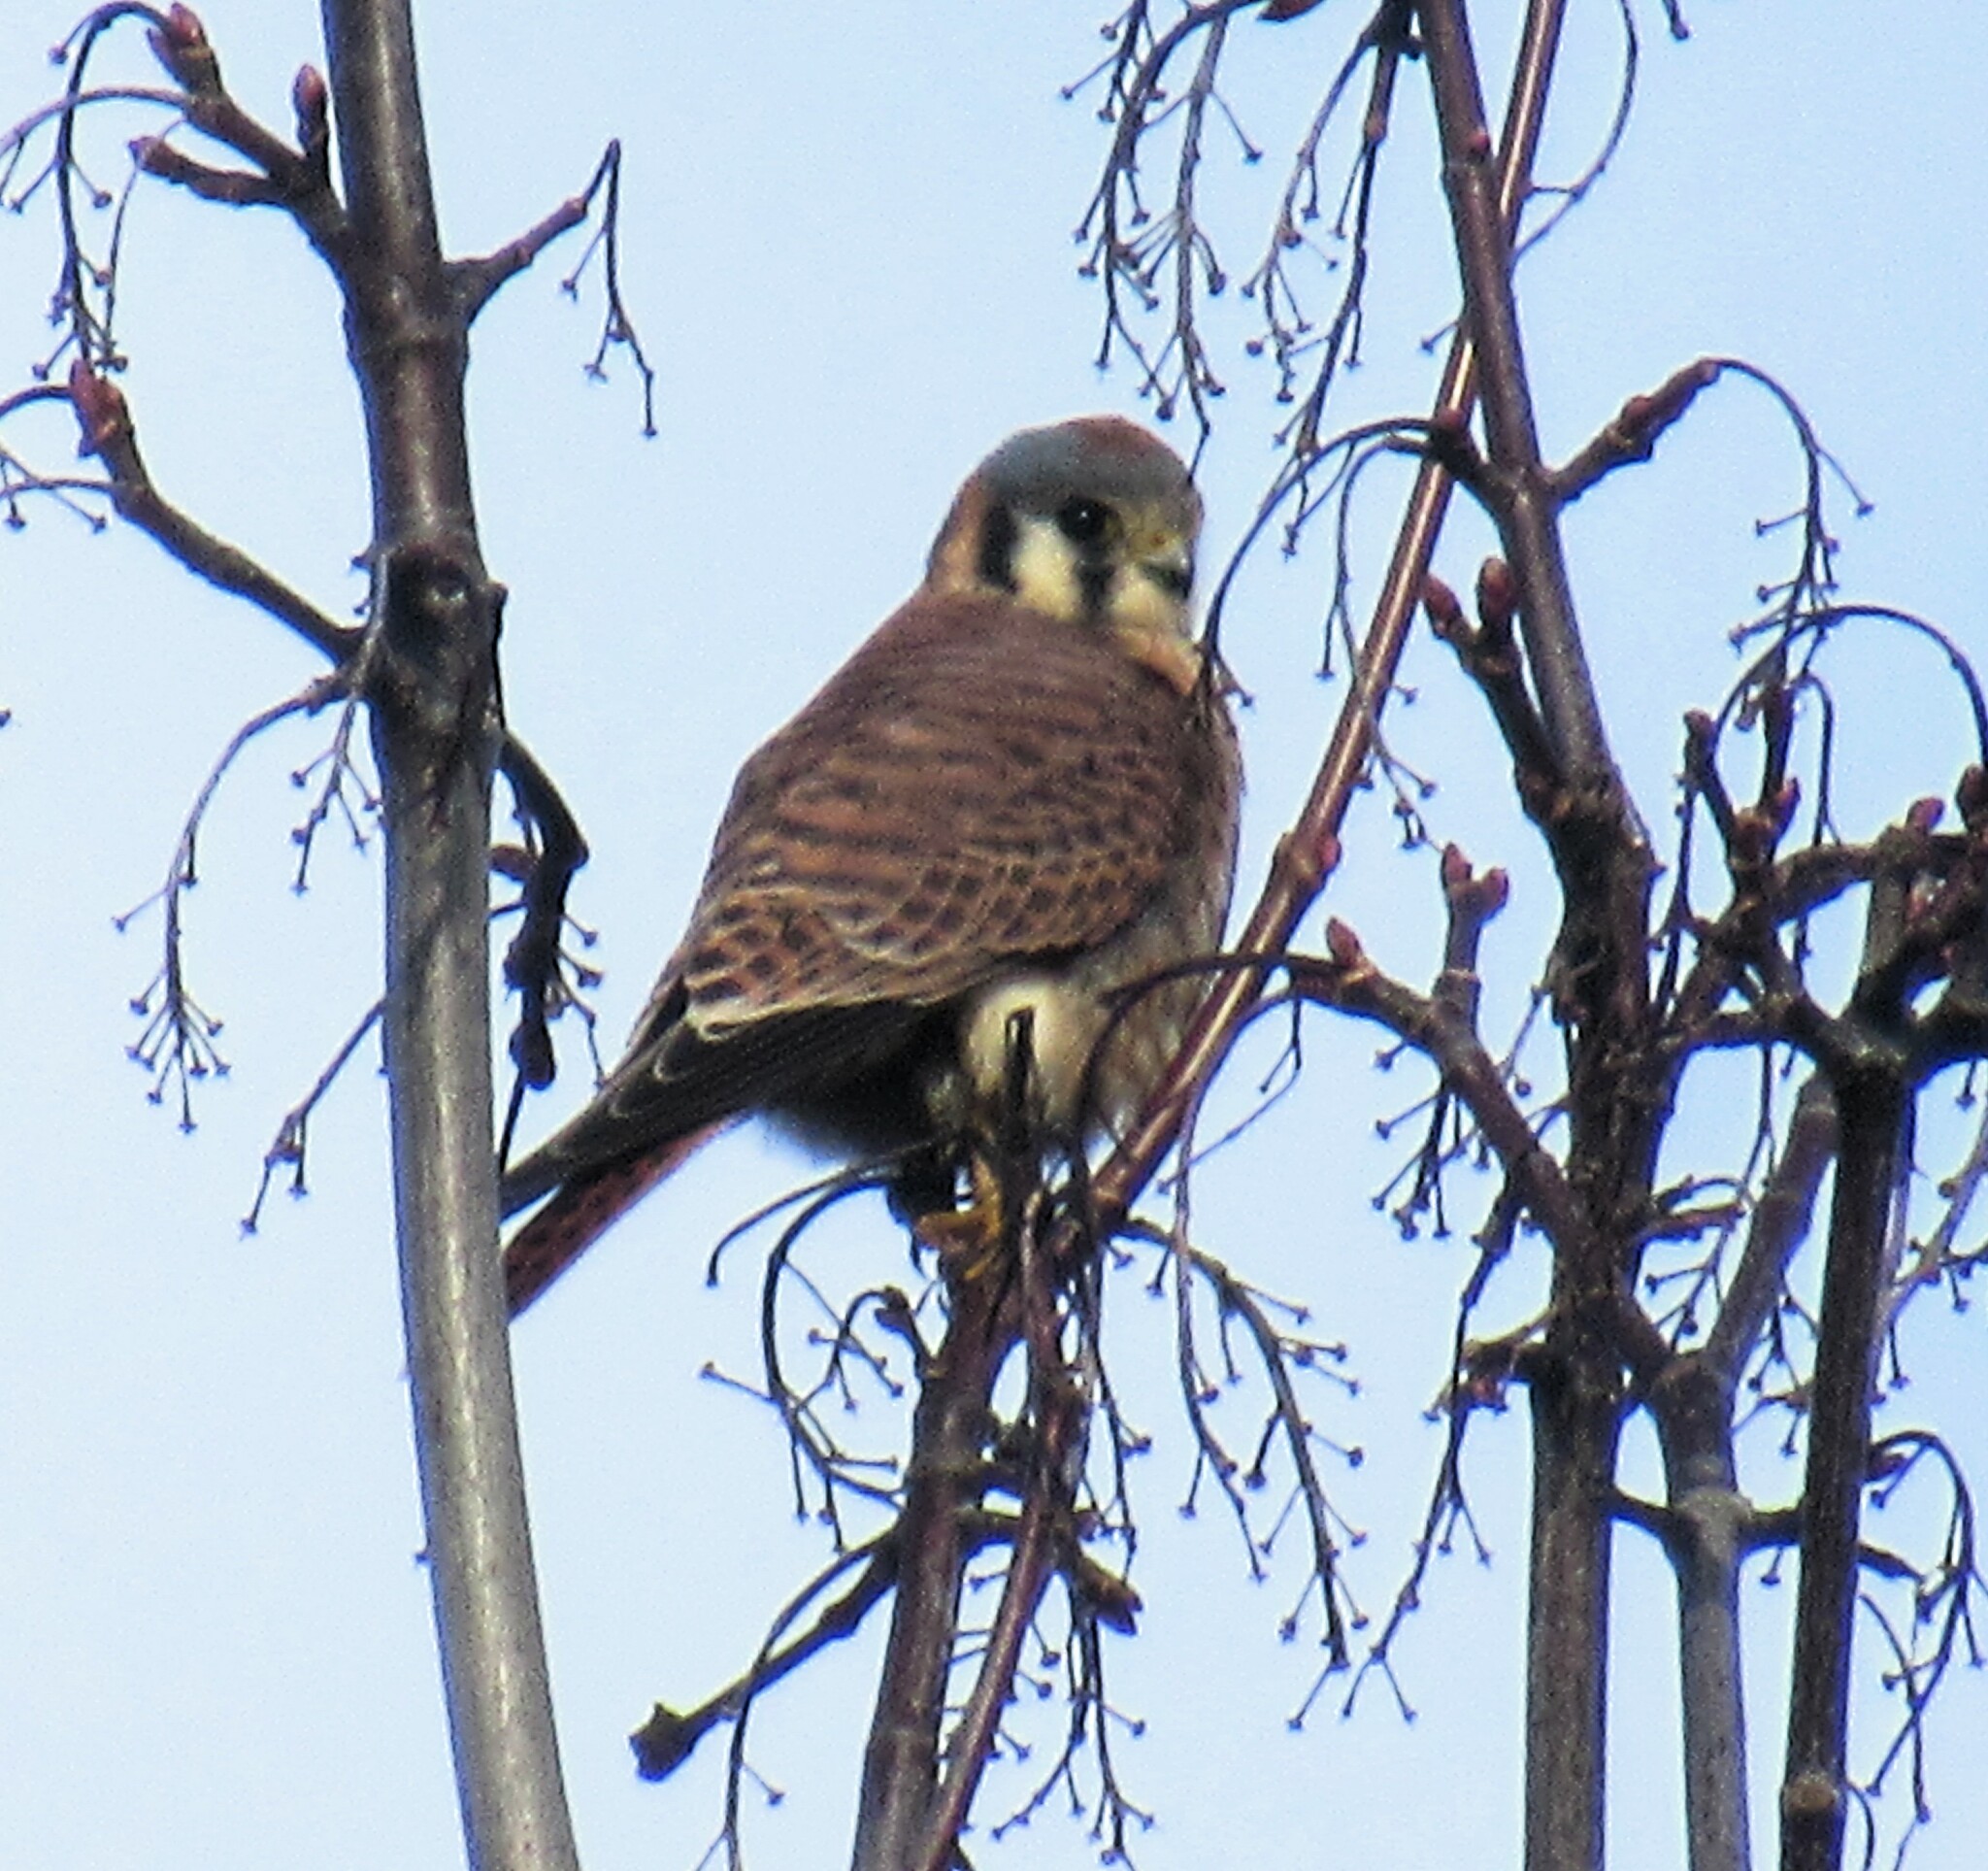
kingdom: Animalia
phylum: Chordata
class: Aves
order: Falconiformes
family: Falconidae
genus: Falco
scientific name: Falco sparverius
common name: American kestrel
